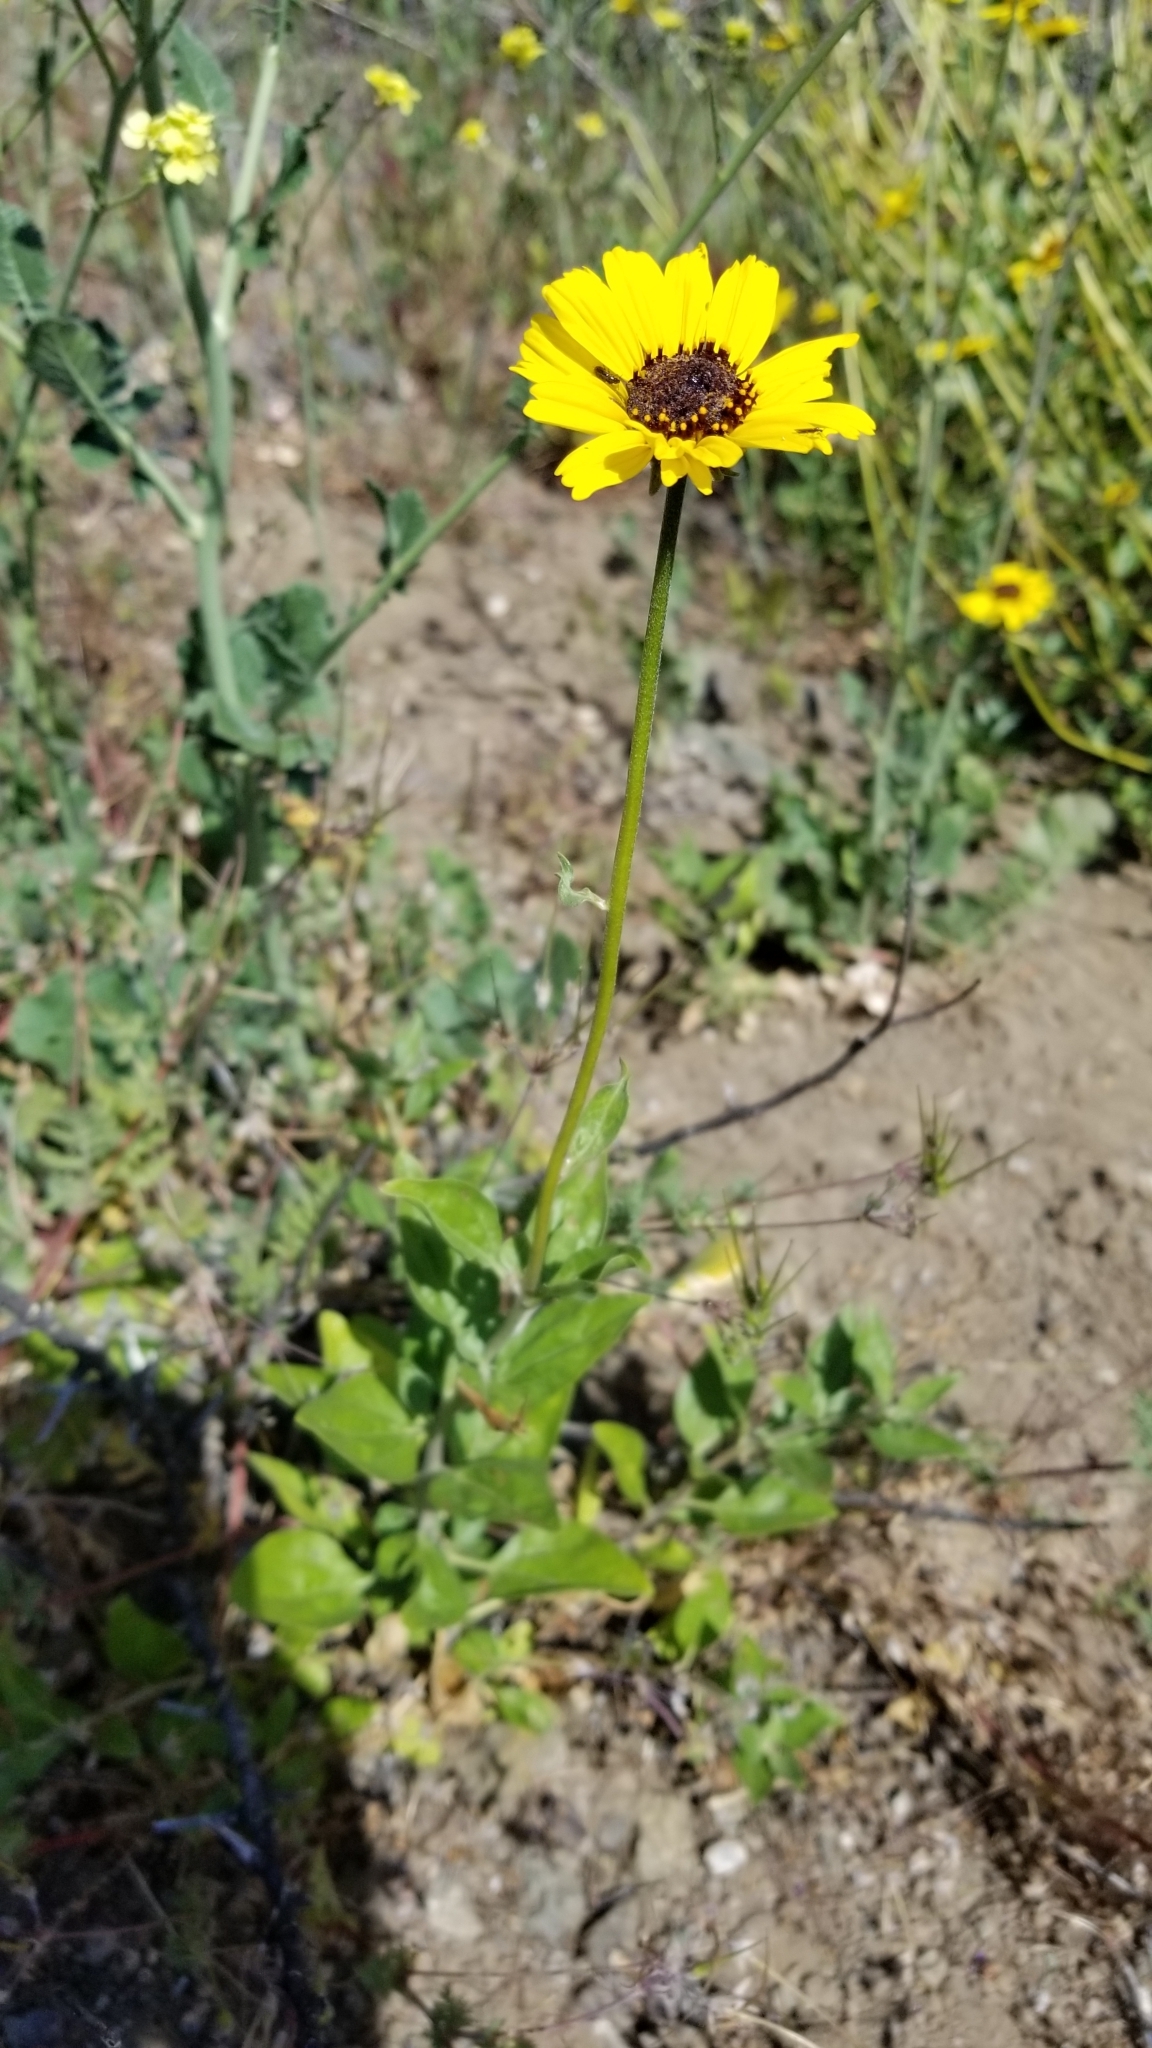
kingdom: Plantae
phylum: Tracheophyta
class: Magnoliopsida
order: Asterales
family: Asteraceae
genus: Encelia
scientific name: Encelia californica
